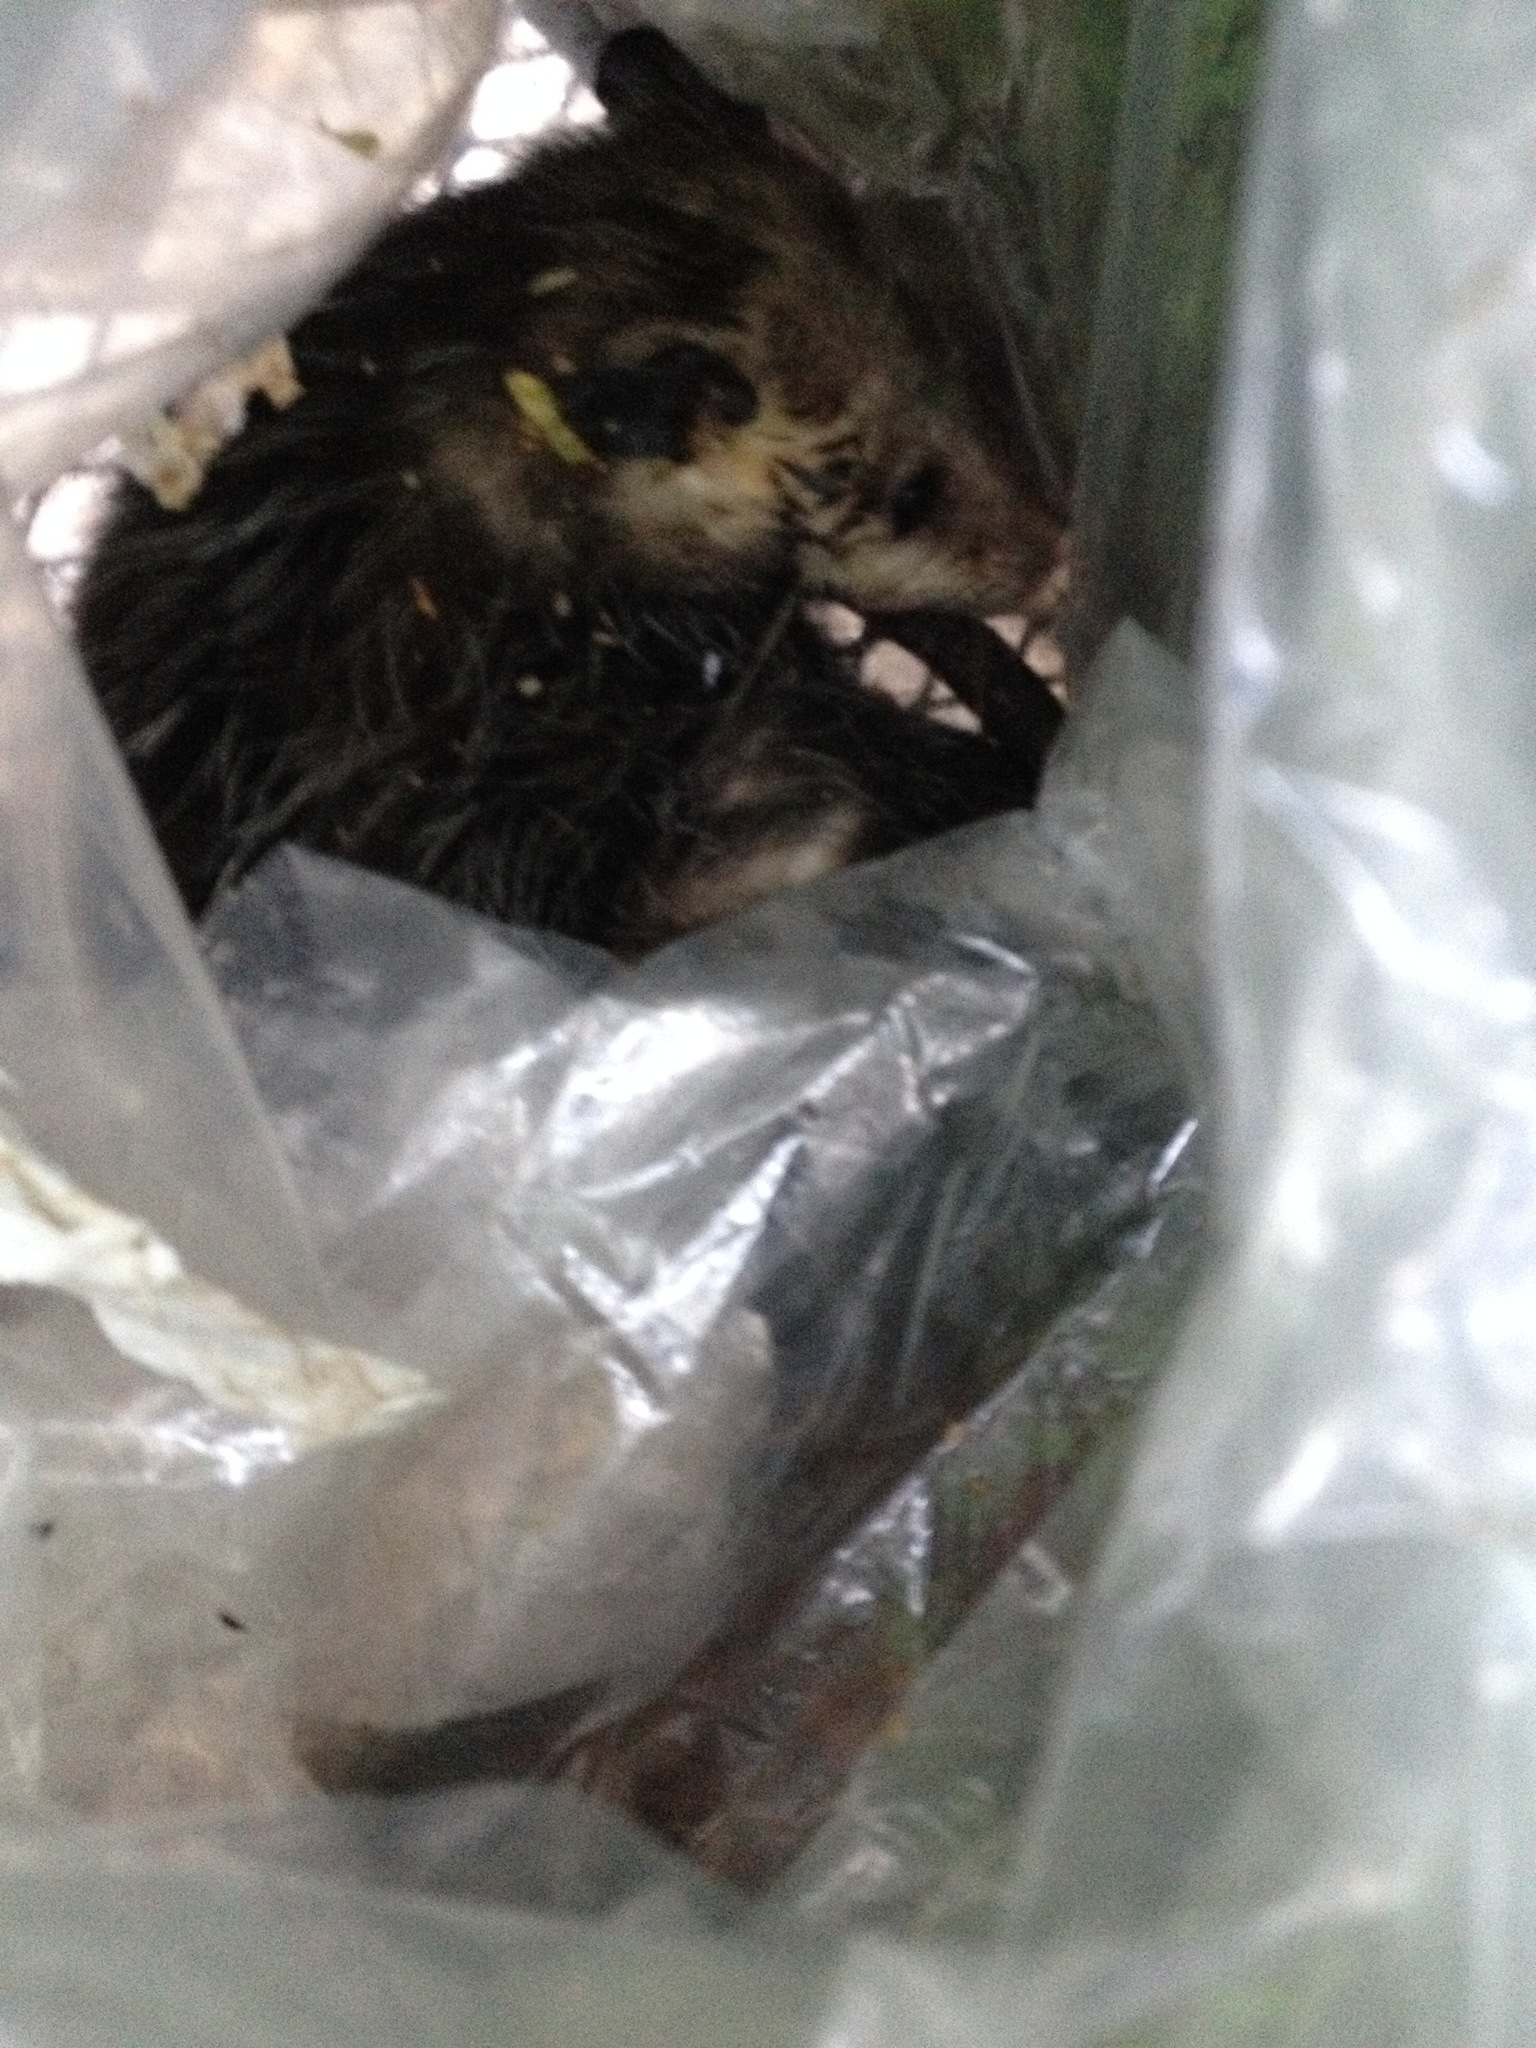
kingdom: Animalia
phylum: Chordata
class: Mammalia
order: Didelphimorphia
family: Didelphidae
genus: Didelphis
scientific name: Didelphis virginiana
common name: Virginia opossum
